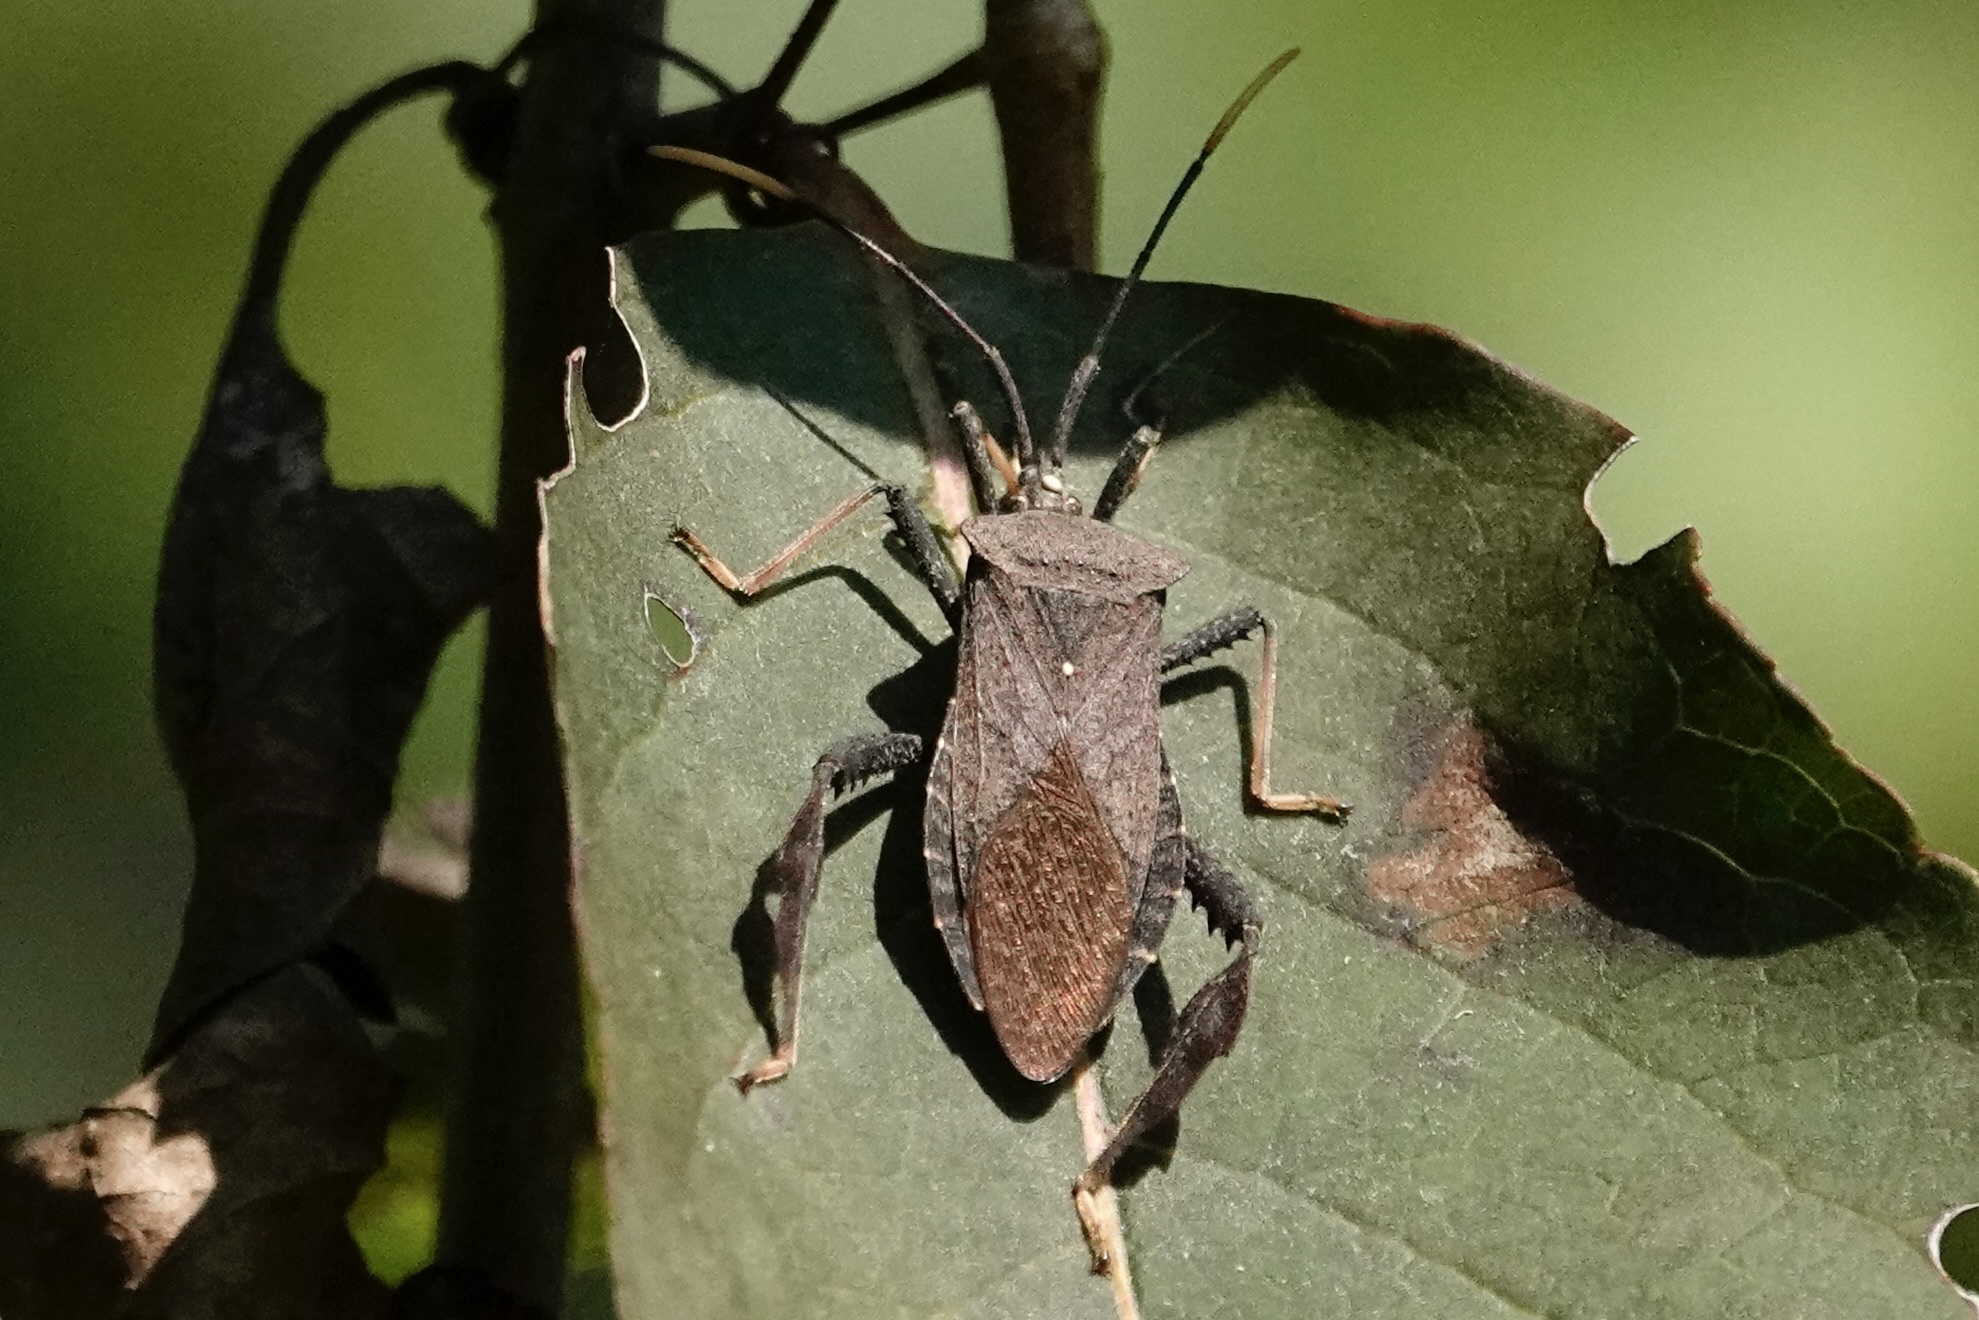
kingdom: Animalia
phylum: Arthropoda
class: Insecta
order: Hemiptera
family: Coreidae
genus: Acanthocephala
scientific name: Acanthocephala terminalis
